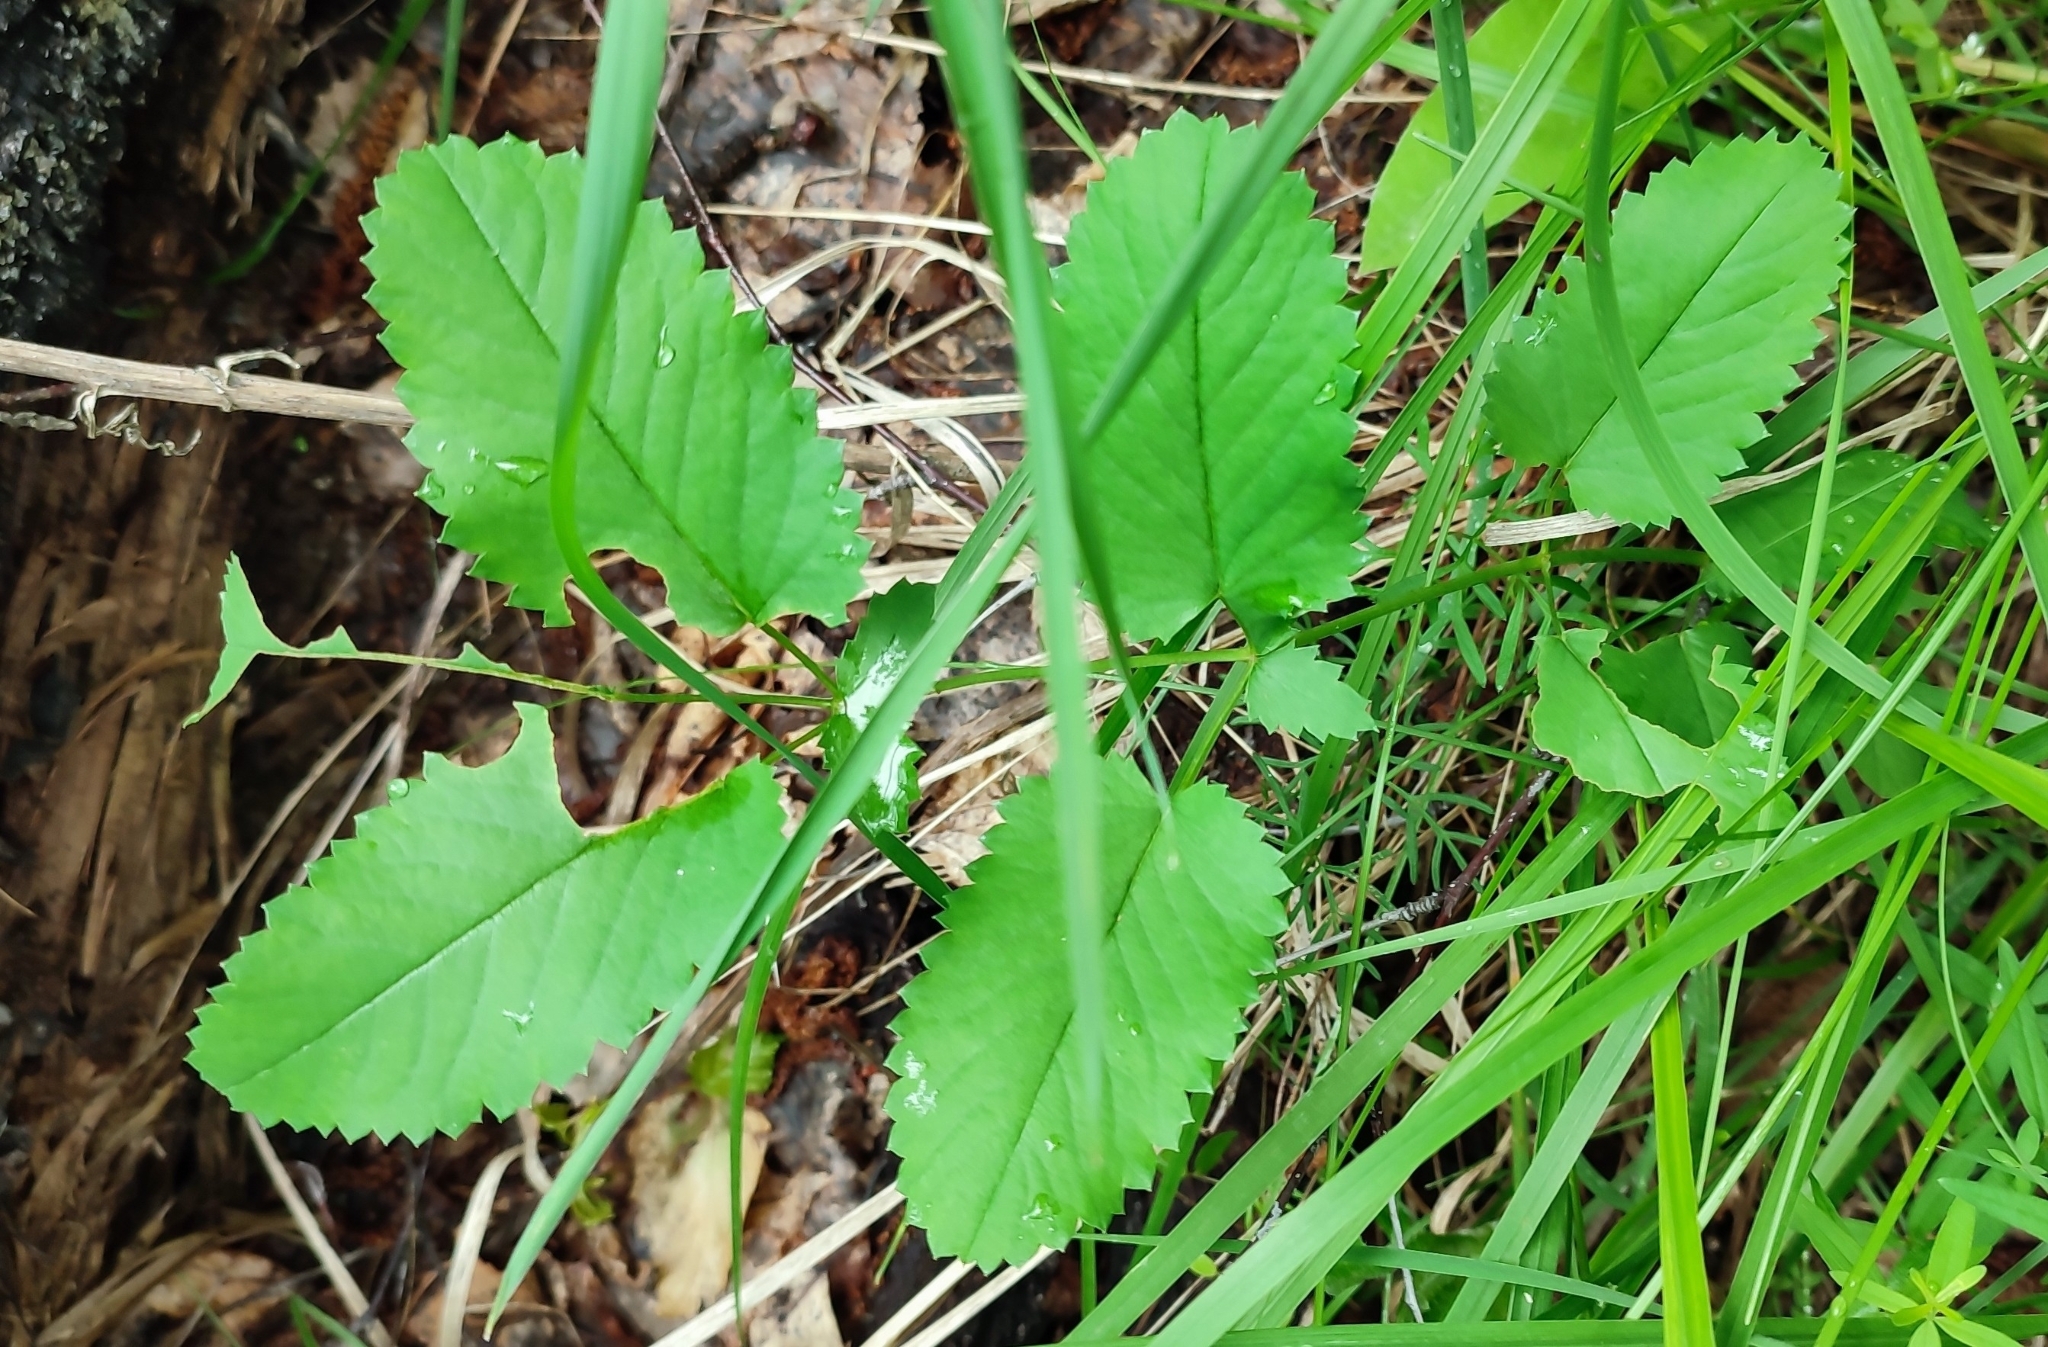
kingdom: Plantae
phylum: Tracheophyta
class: Magnoliopsida
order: Rosales
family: Rosaceae
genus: Sanguisorba
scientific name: Sanguisorba officinalis
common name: Great burnet
